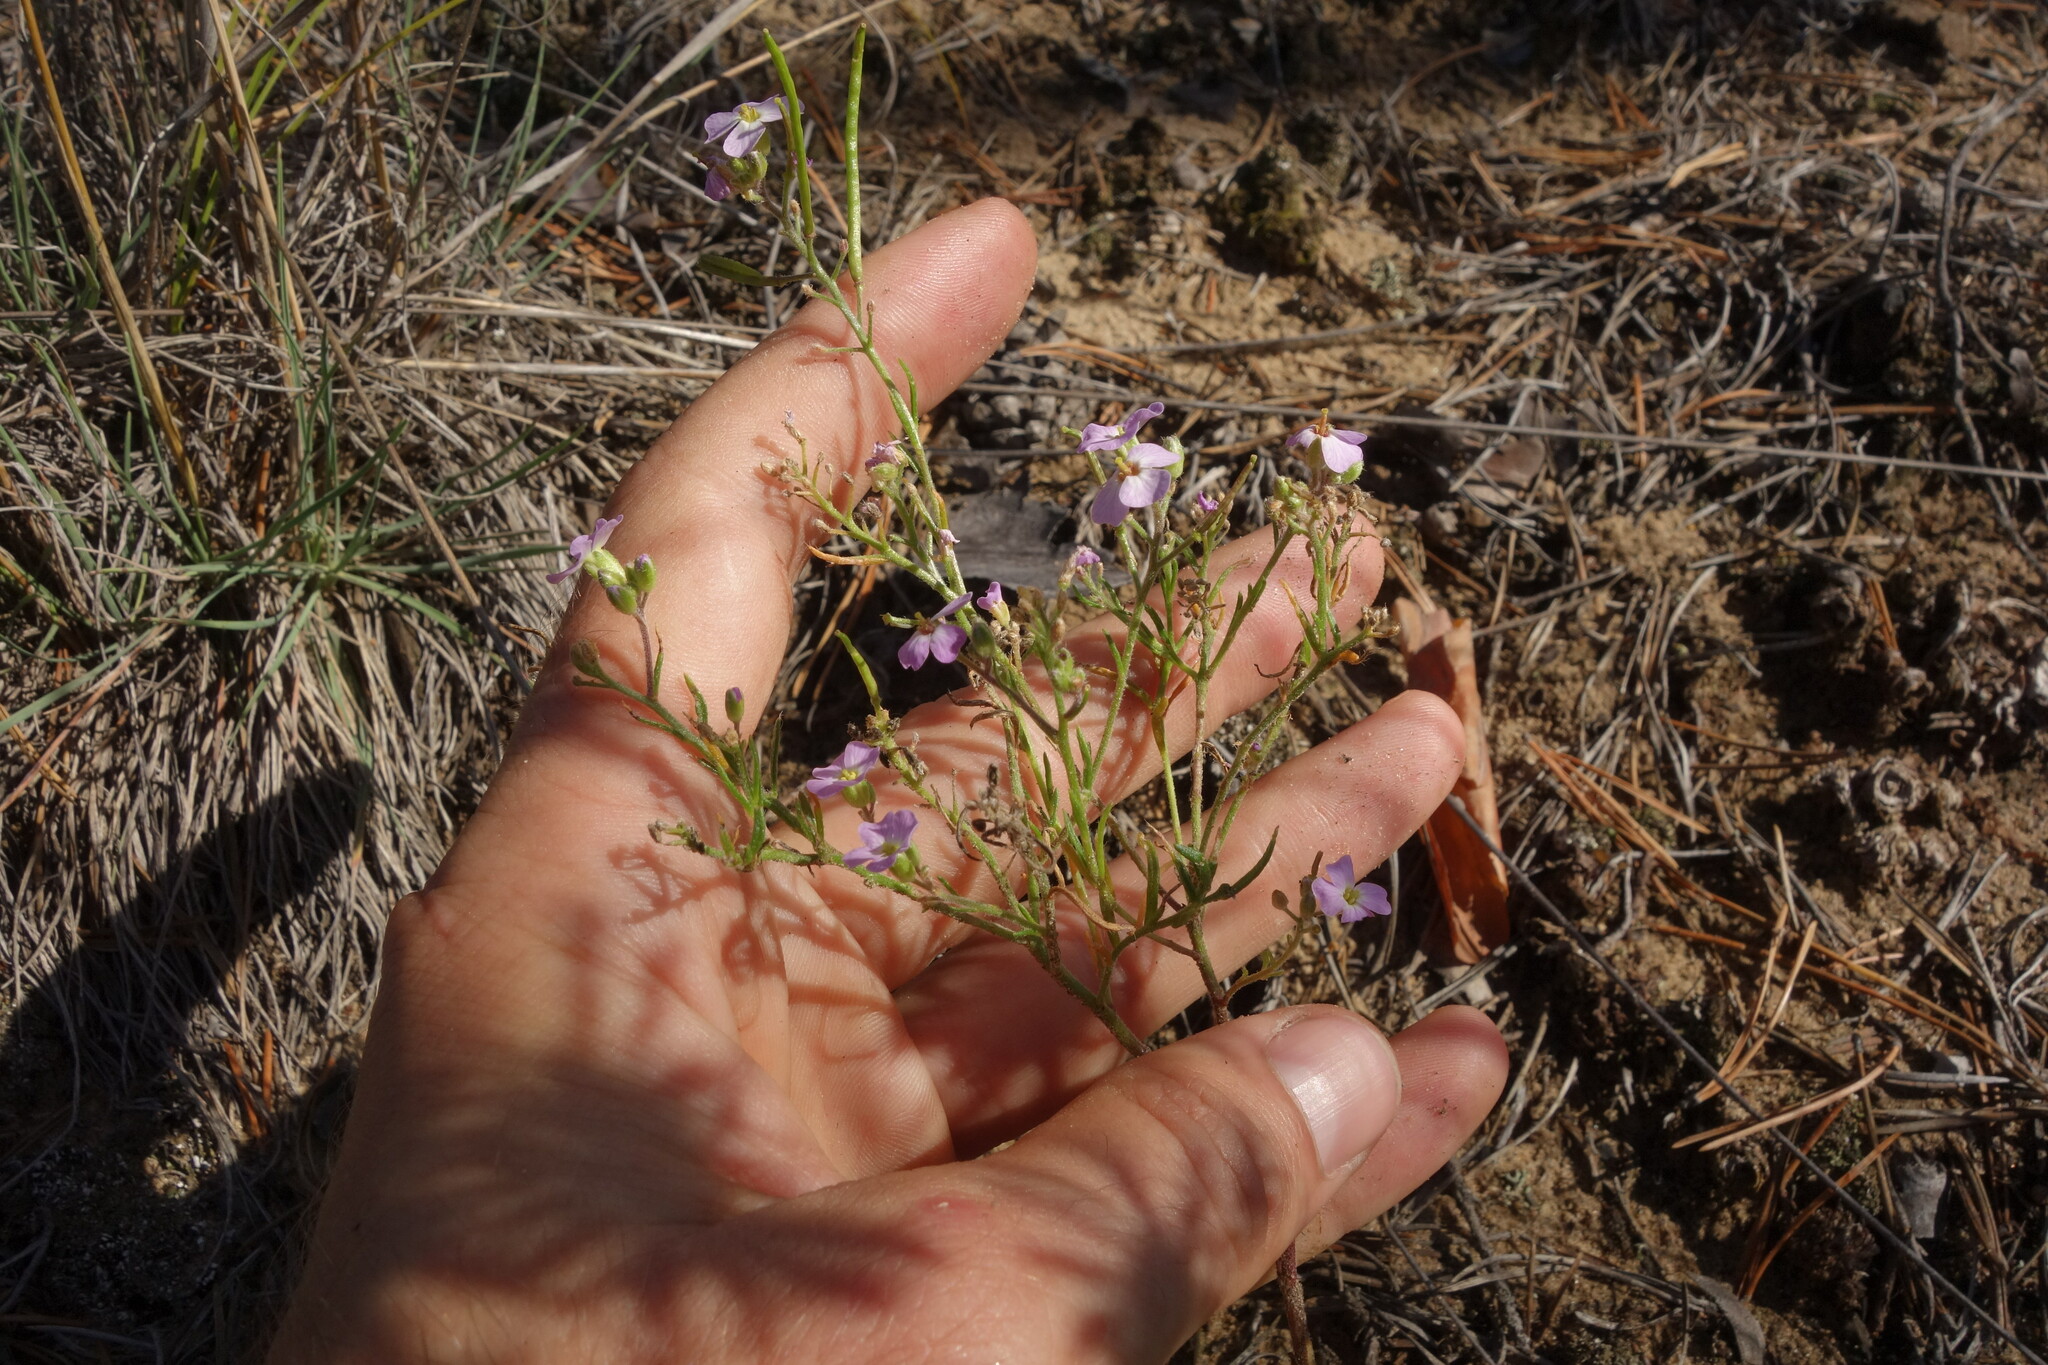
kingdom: Plantae
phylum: Tracheophyta
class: Magnoliopsida
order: Brassicales
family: Brassicaceae
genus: Dontostemon
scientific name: Dontostemon integrifolius
